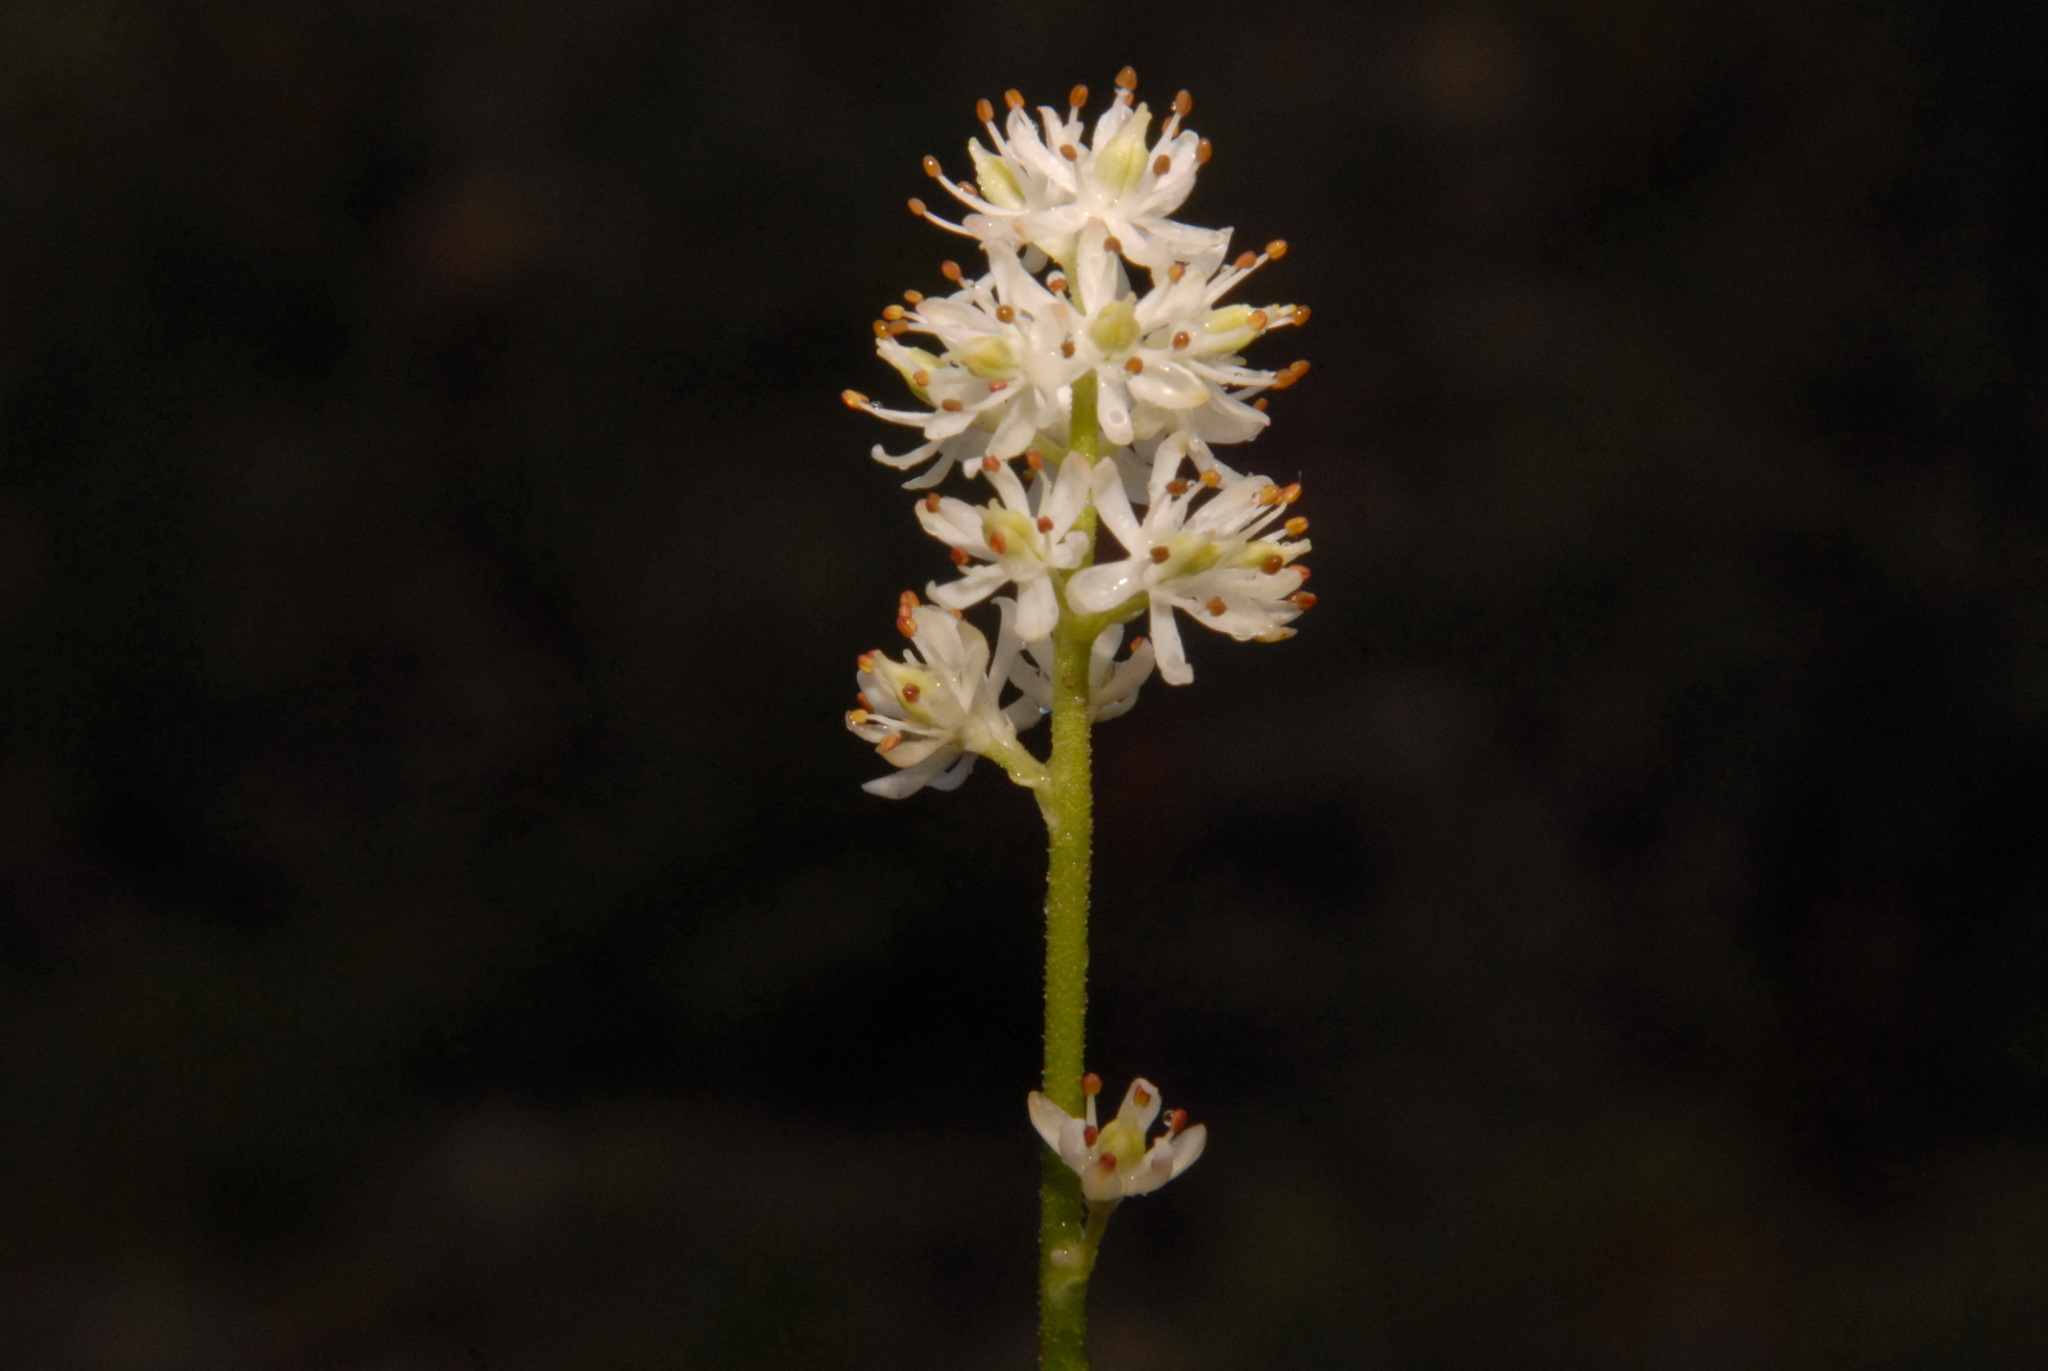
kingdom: Plantae
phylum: Tracheophyta
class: Liliopsida
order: Alismatales
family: Tofieldiaceae
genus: Triantha
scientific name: Triantha glutinosa
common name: Glutinous tofieldia
